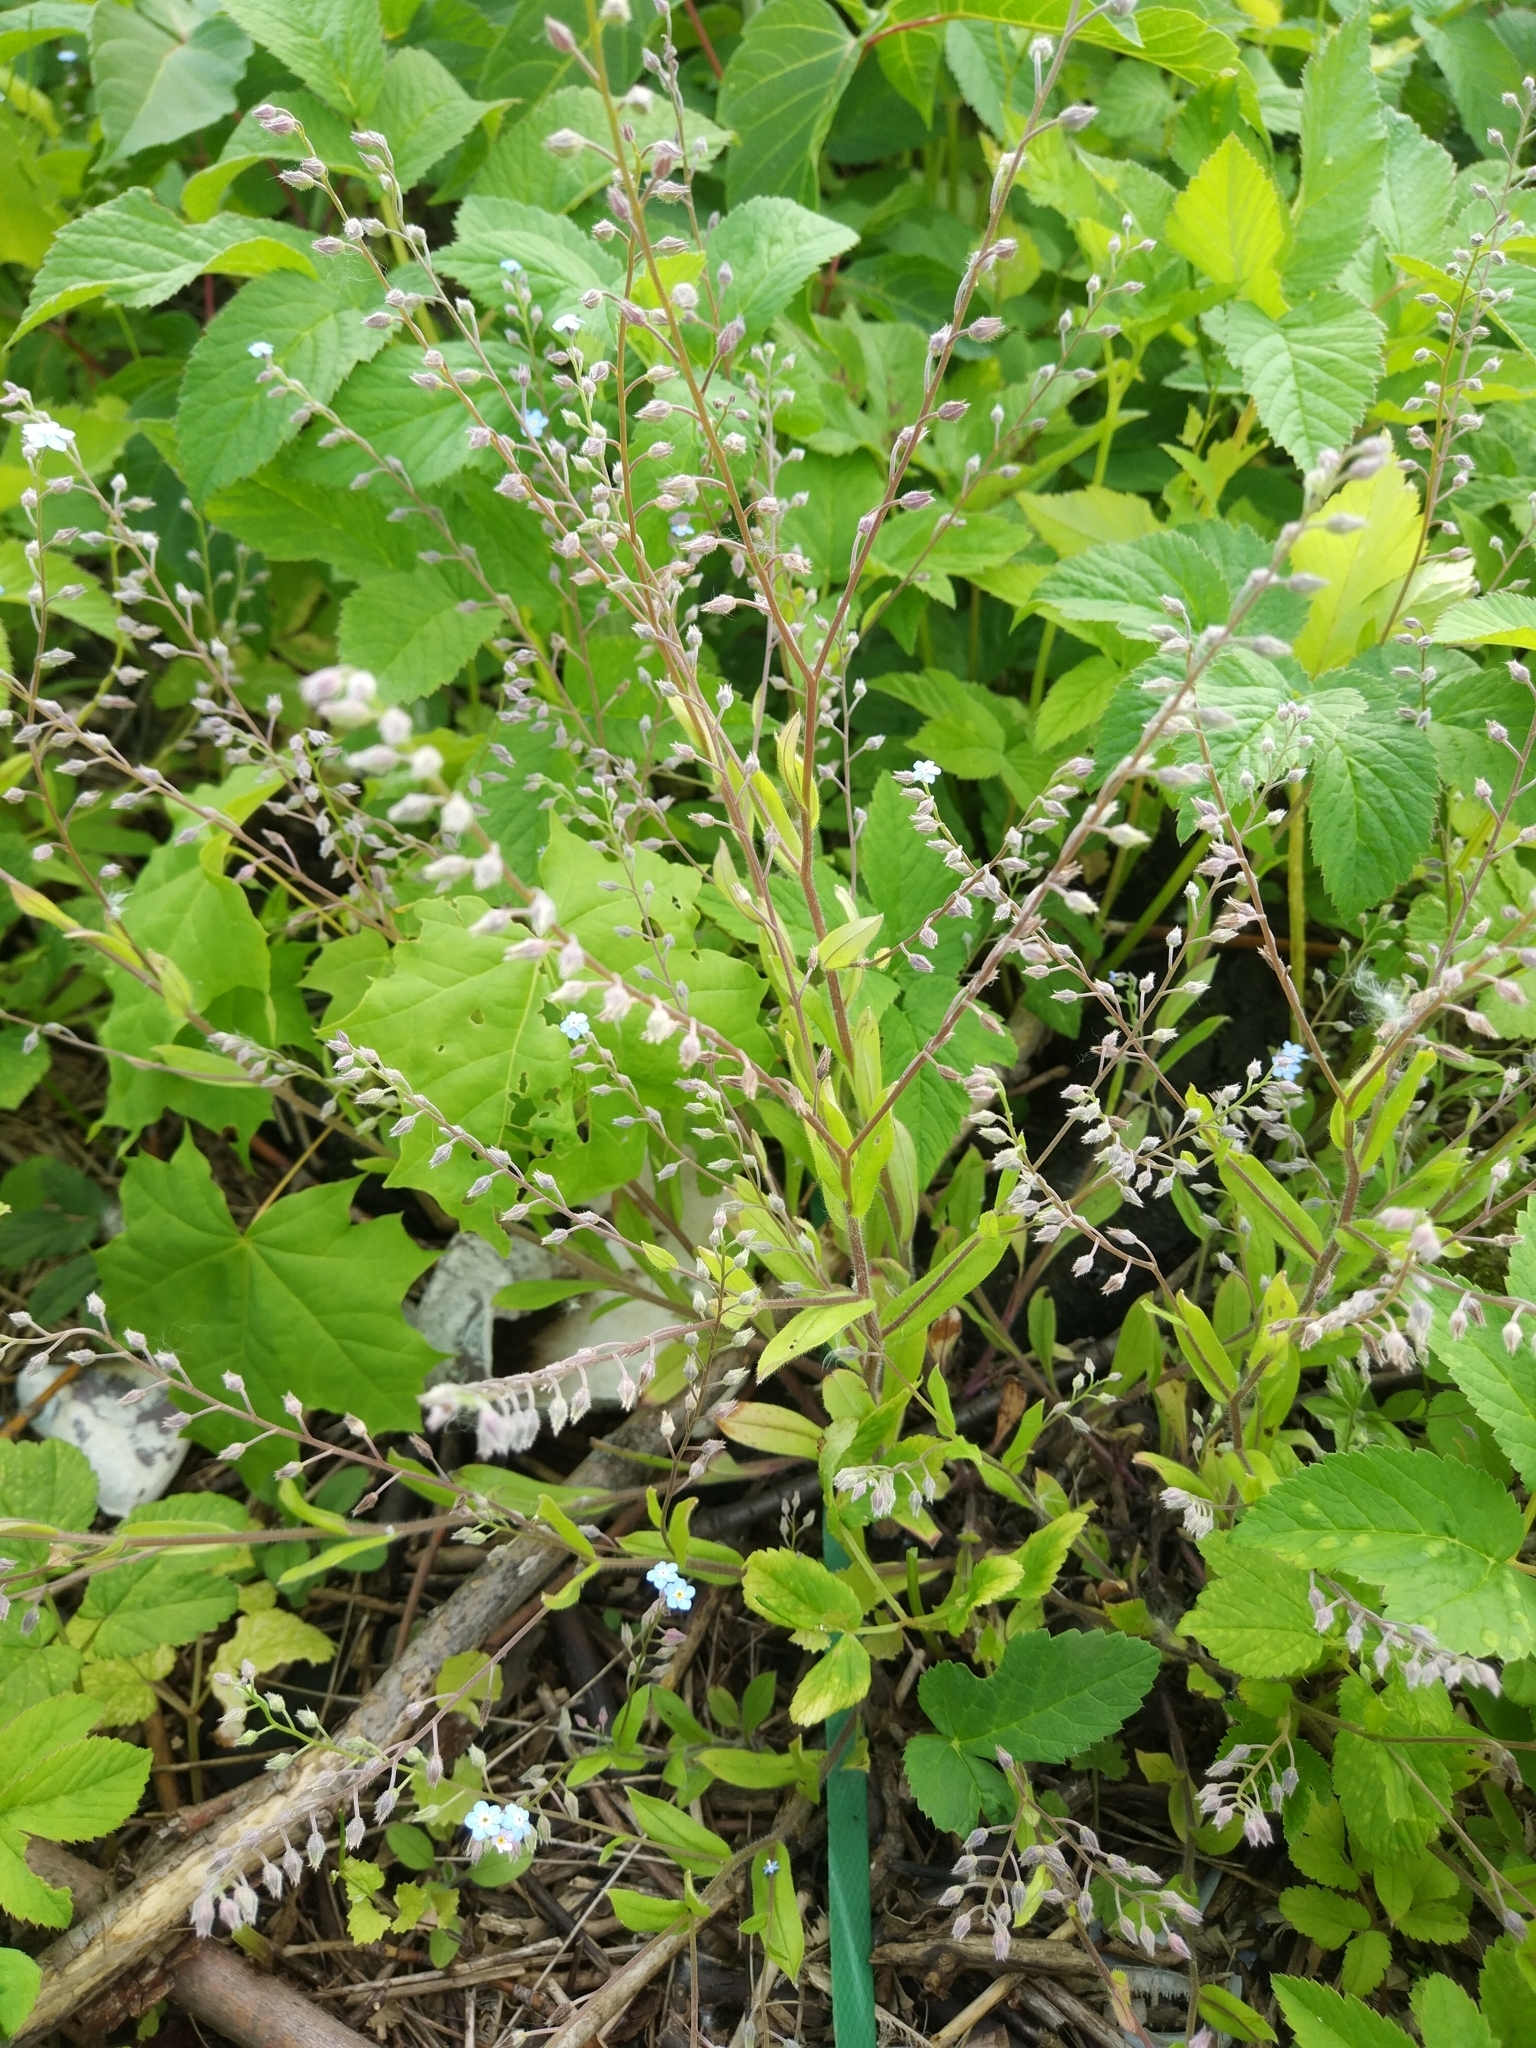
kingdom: Plantae
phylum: Tracheophyta
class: Magnoliopsida
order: Boraginales
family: Boraginaceae
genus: Myosotis
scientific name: Myosotis arvensis
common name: Field forget-me-not
